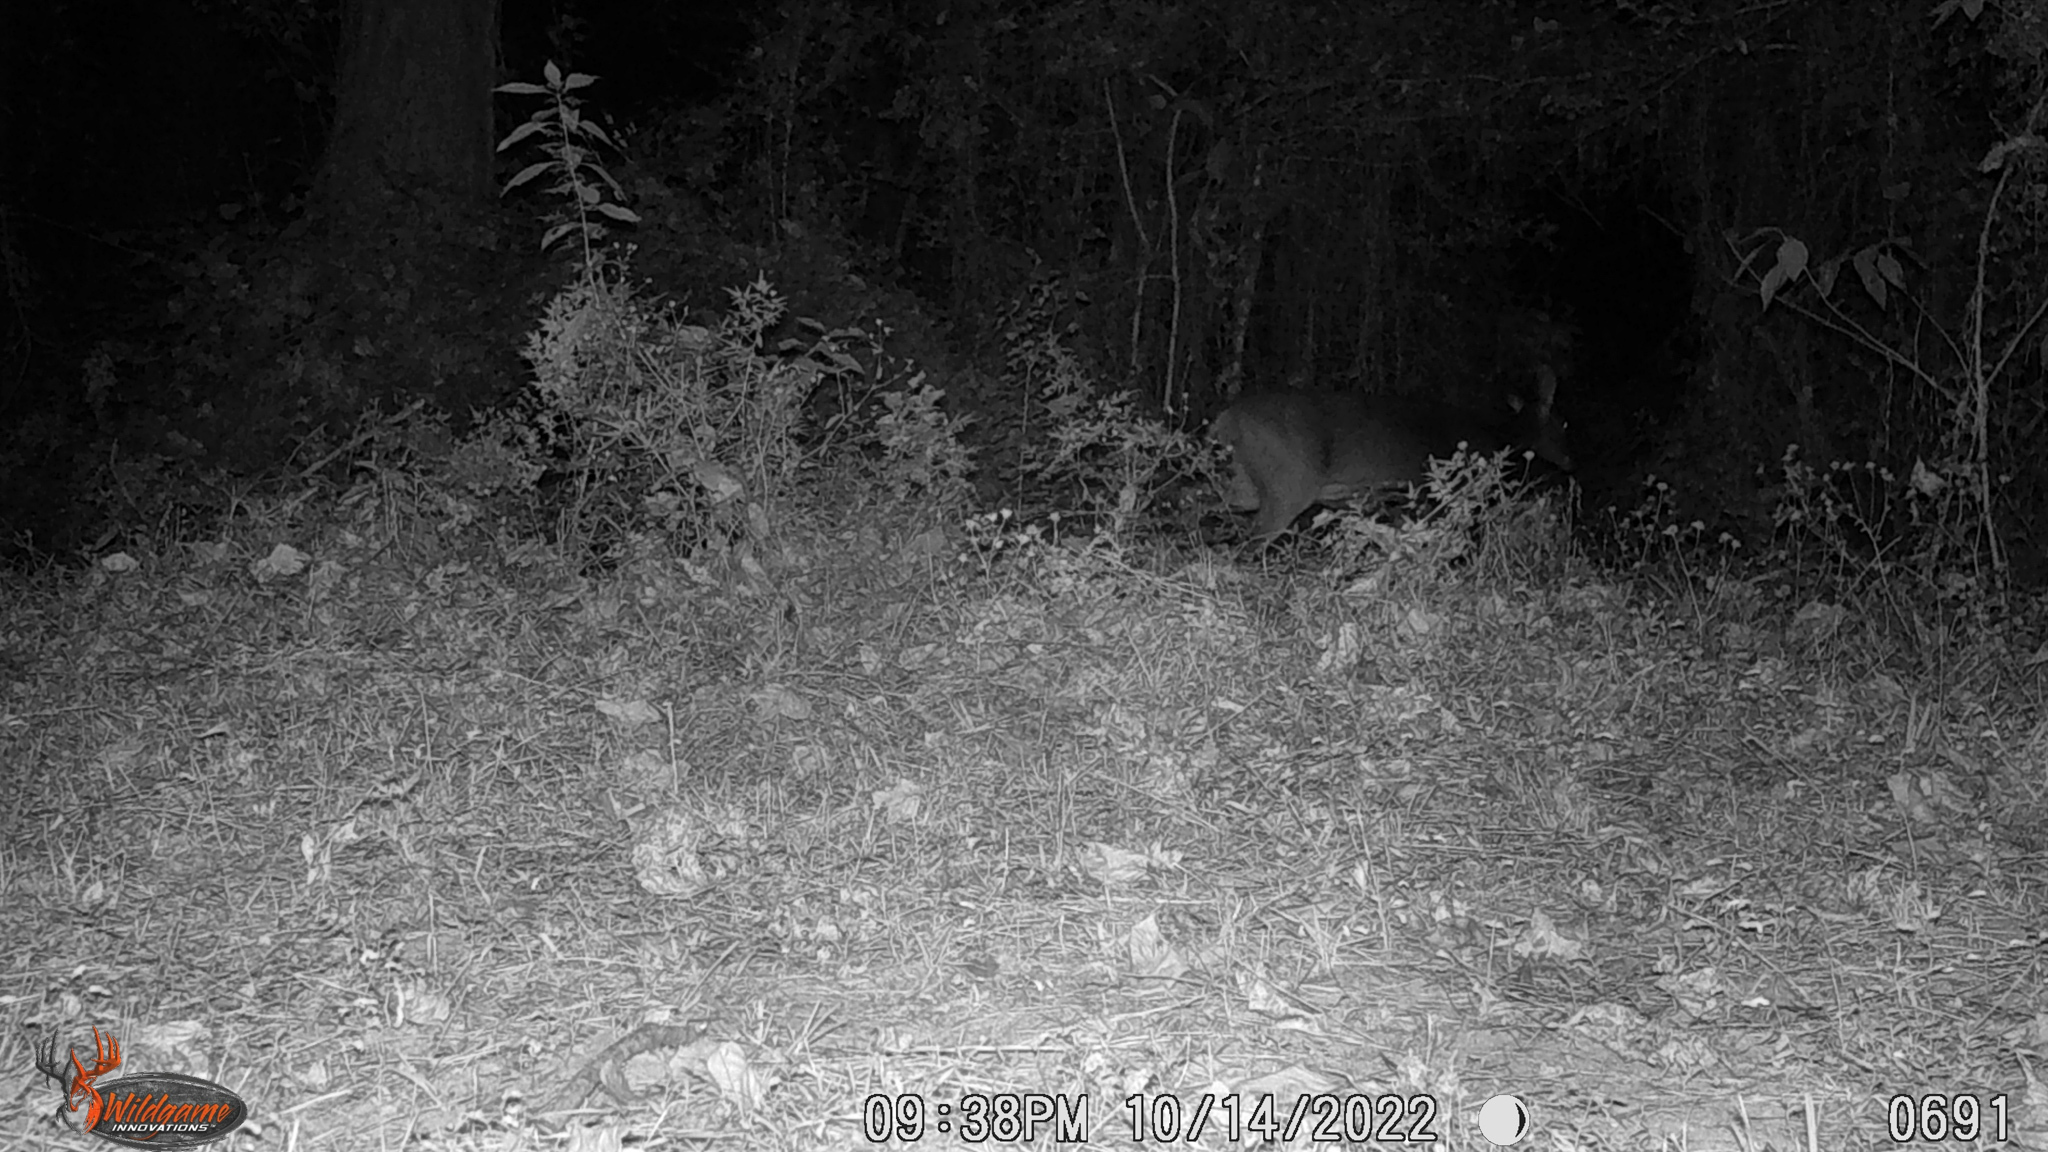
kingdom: Animalia
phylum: Chordata
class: Mammalia
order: Artiodactyla
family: Cervidae
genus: Odocoileus
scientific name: Odocoileus virginianus
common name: White-tailed deer
